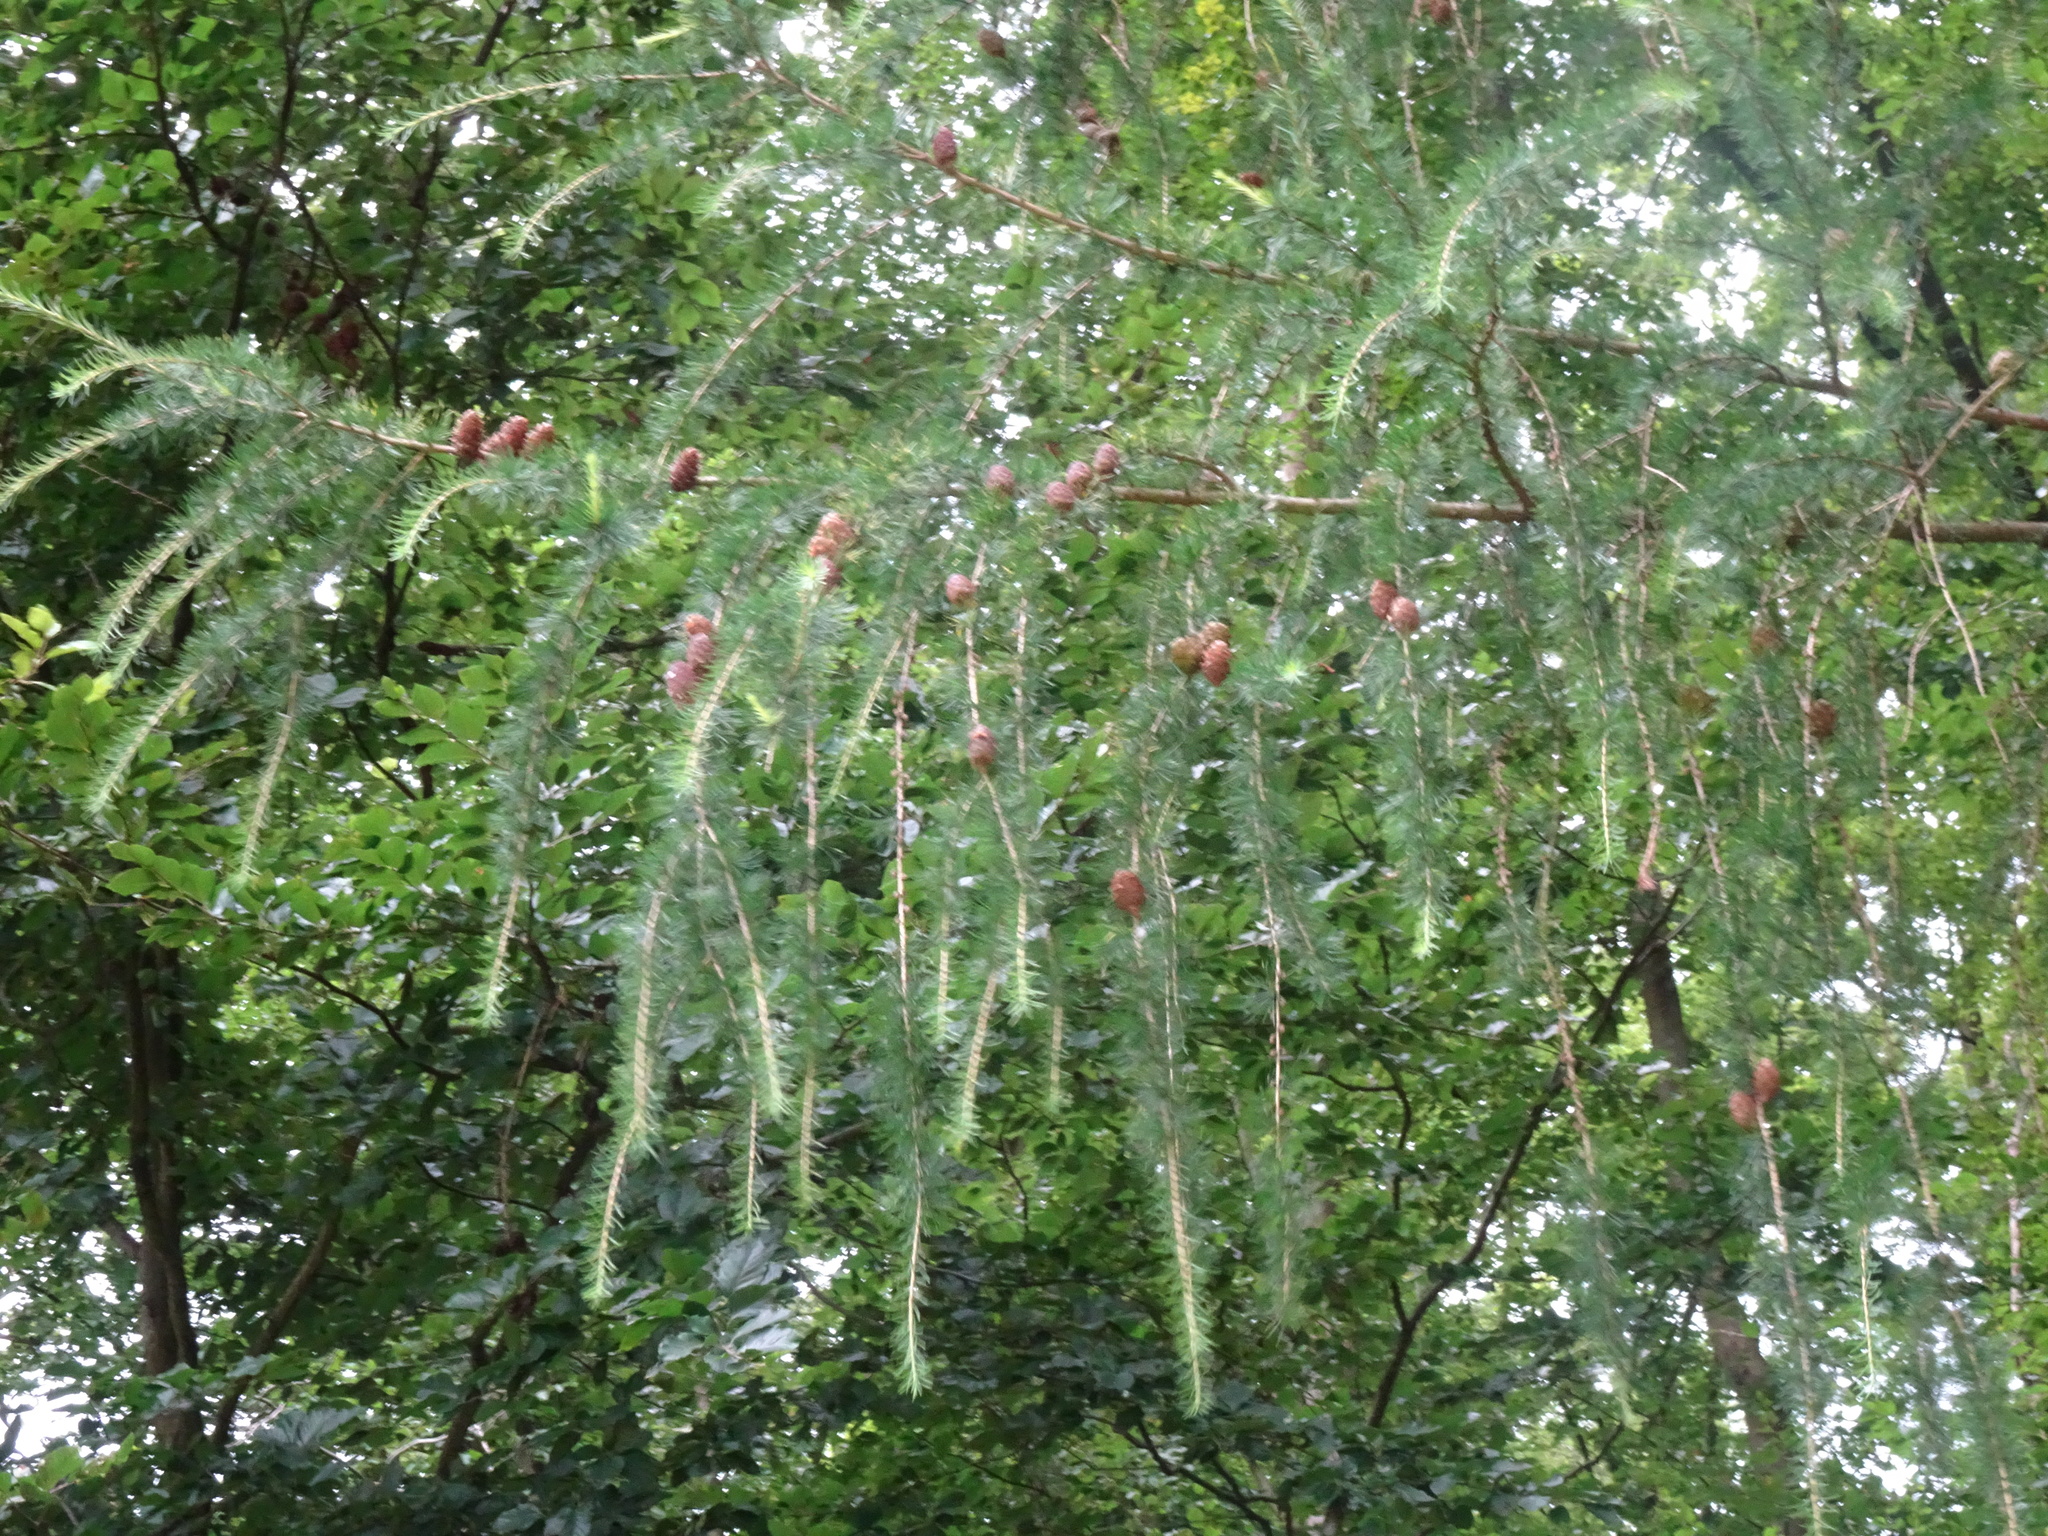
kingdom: Plantae
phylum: Tracheophyta
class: Pinopsida
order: Pinales
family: Pinaceae
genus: Larix
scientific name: Larix decidua
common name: European larch
